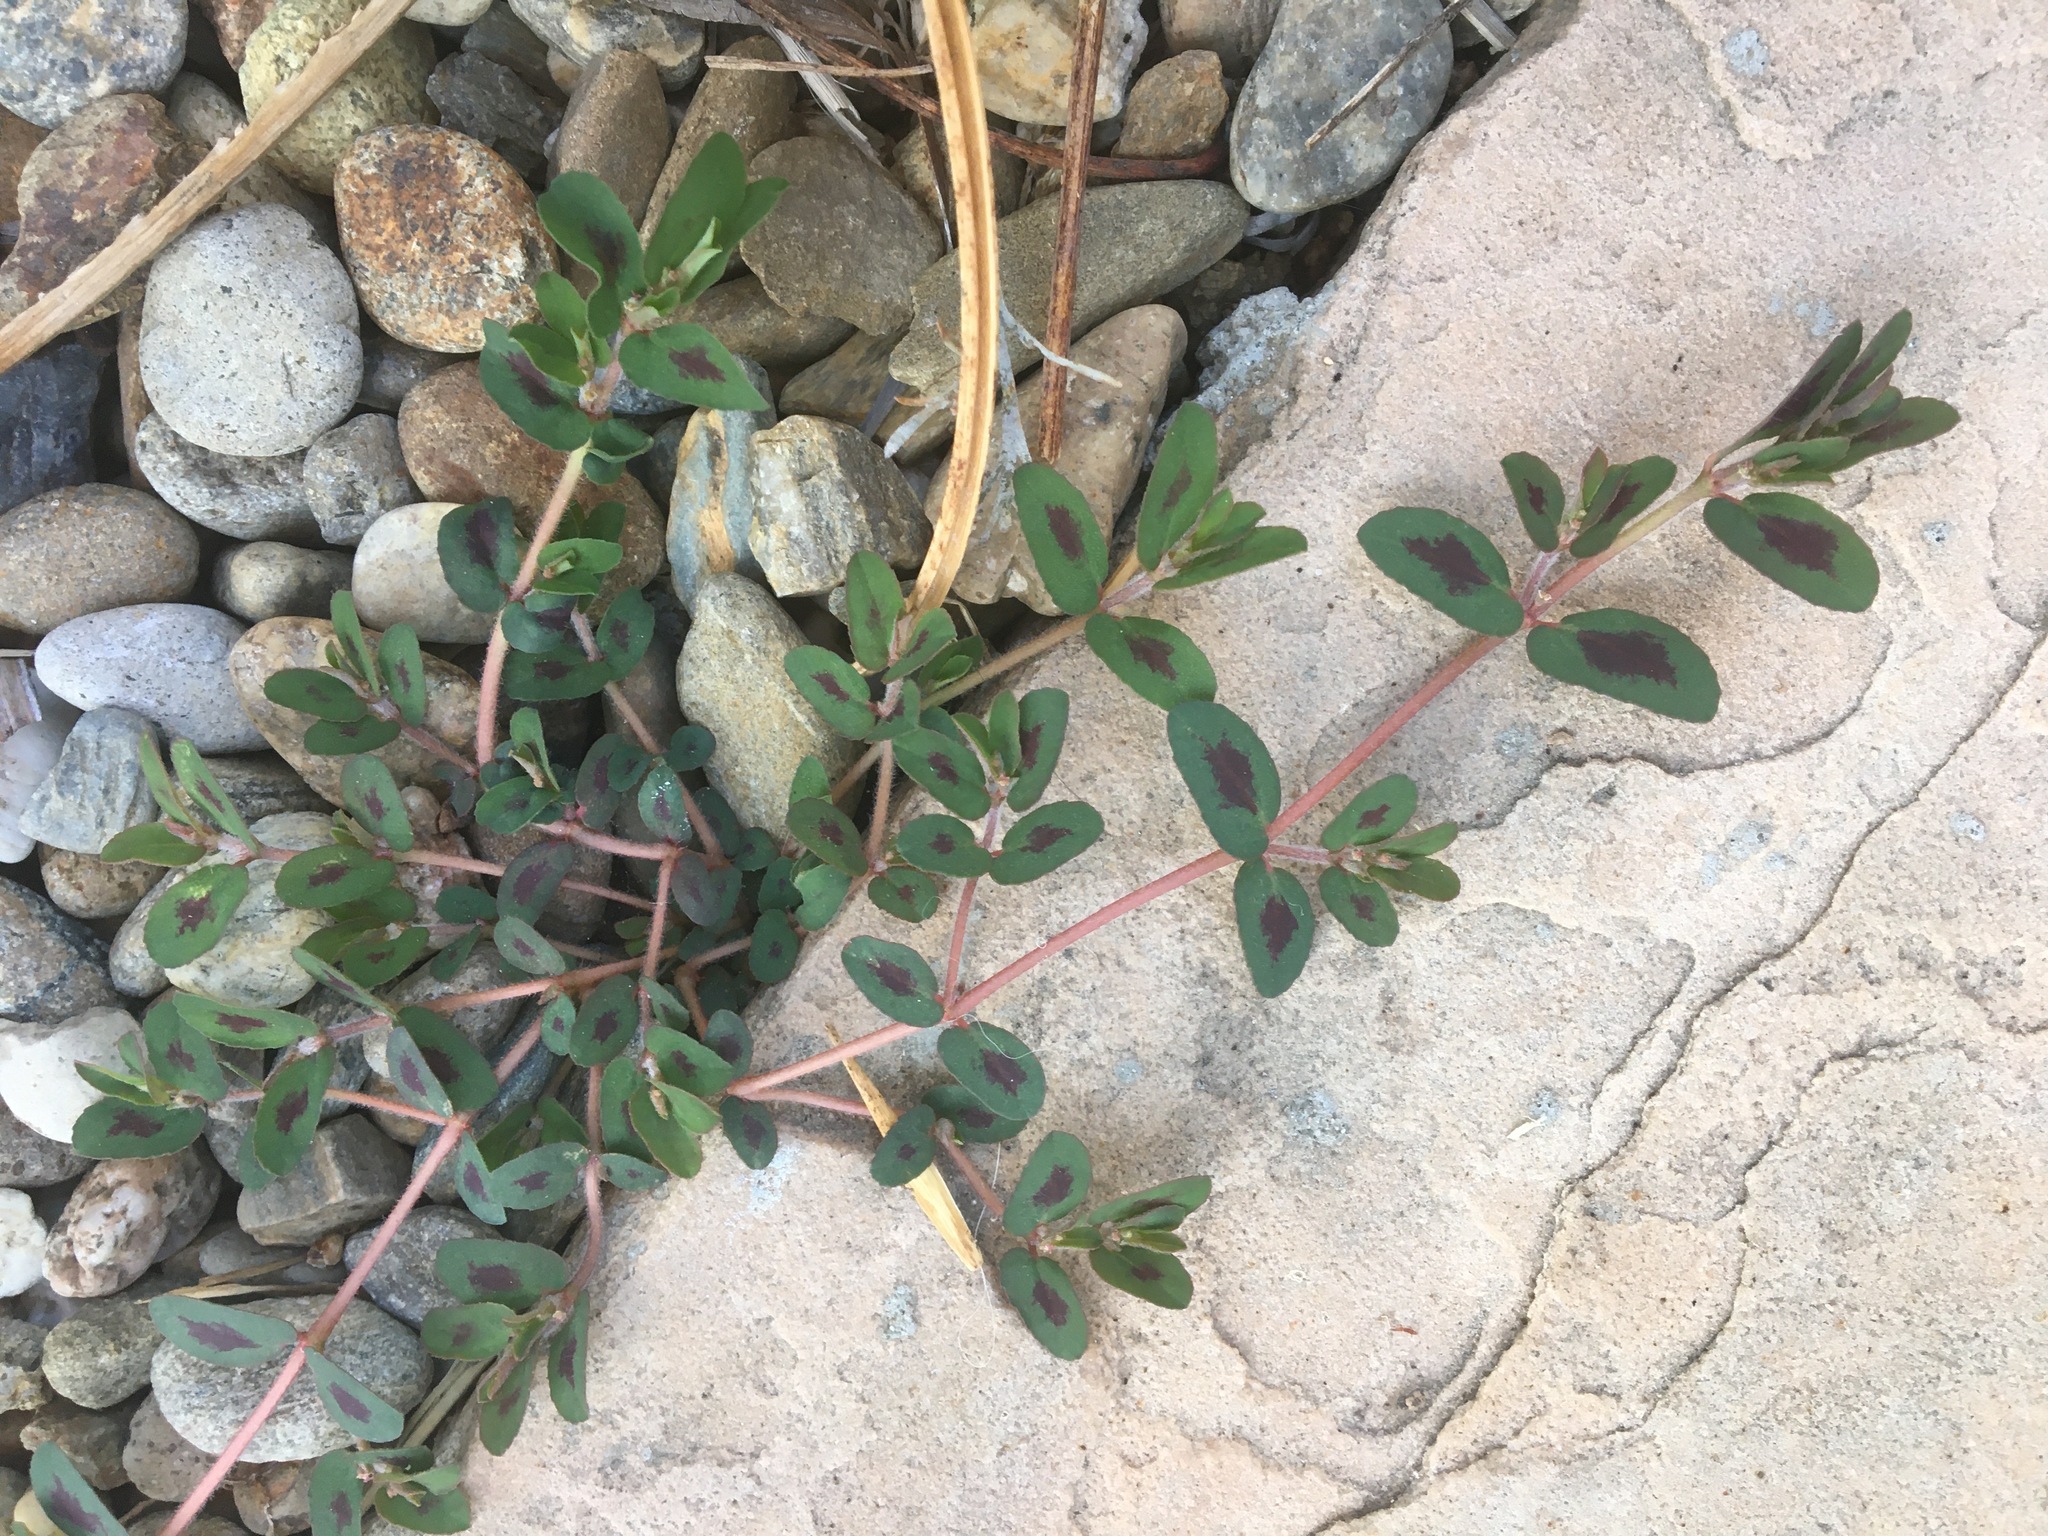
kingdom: Plantae
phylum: Tracheophyta
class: Magnoliopsida
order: Malpighiales
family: Euphorbiaceae
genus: Euphorbia
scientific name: Euphorbia maculata
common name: Spotted spurge
